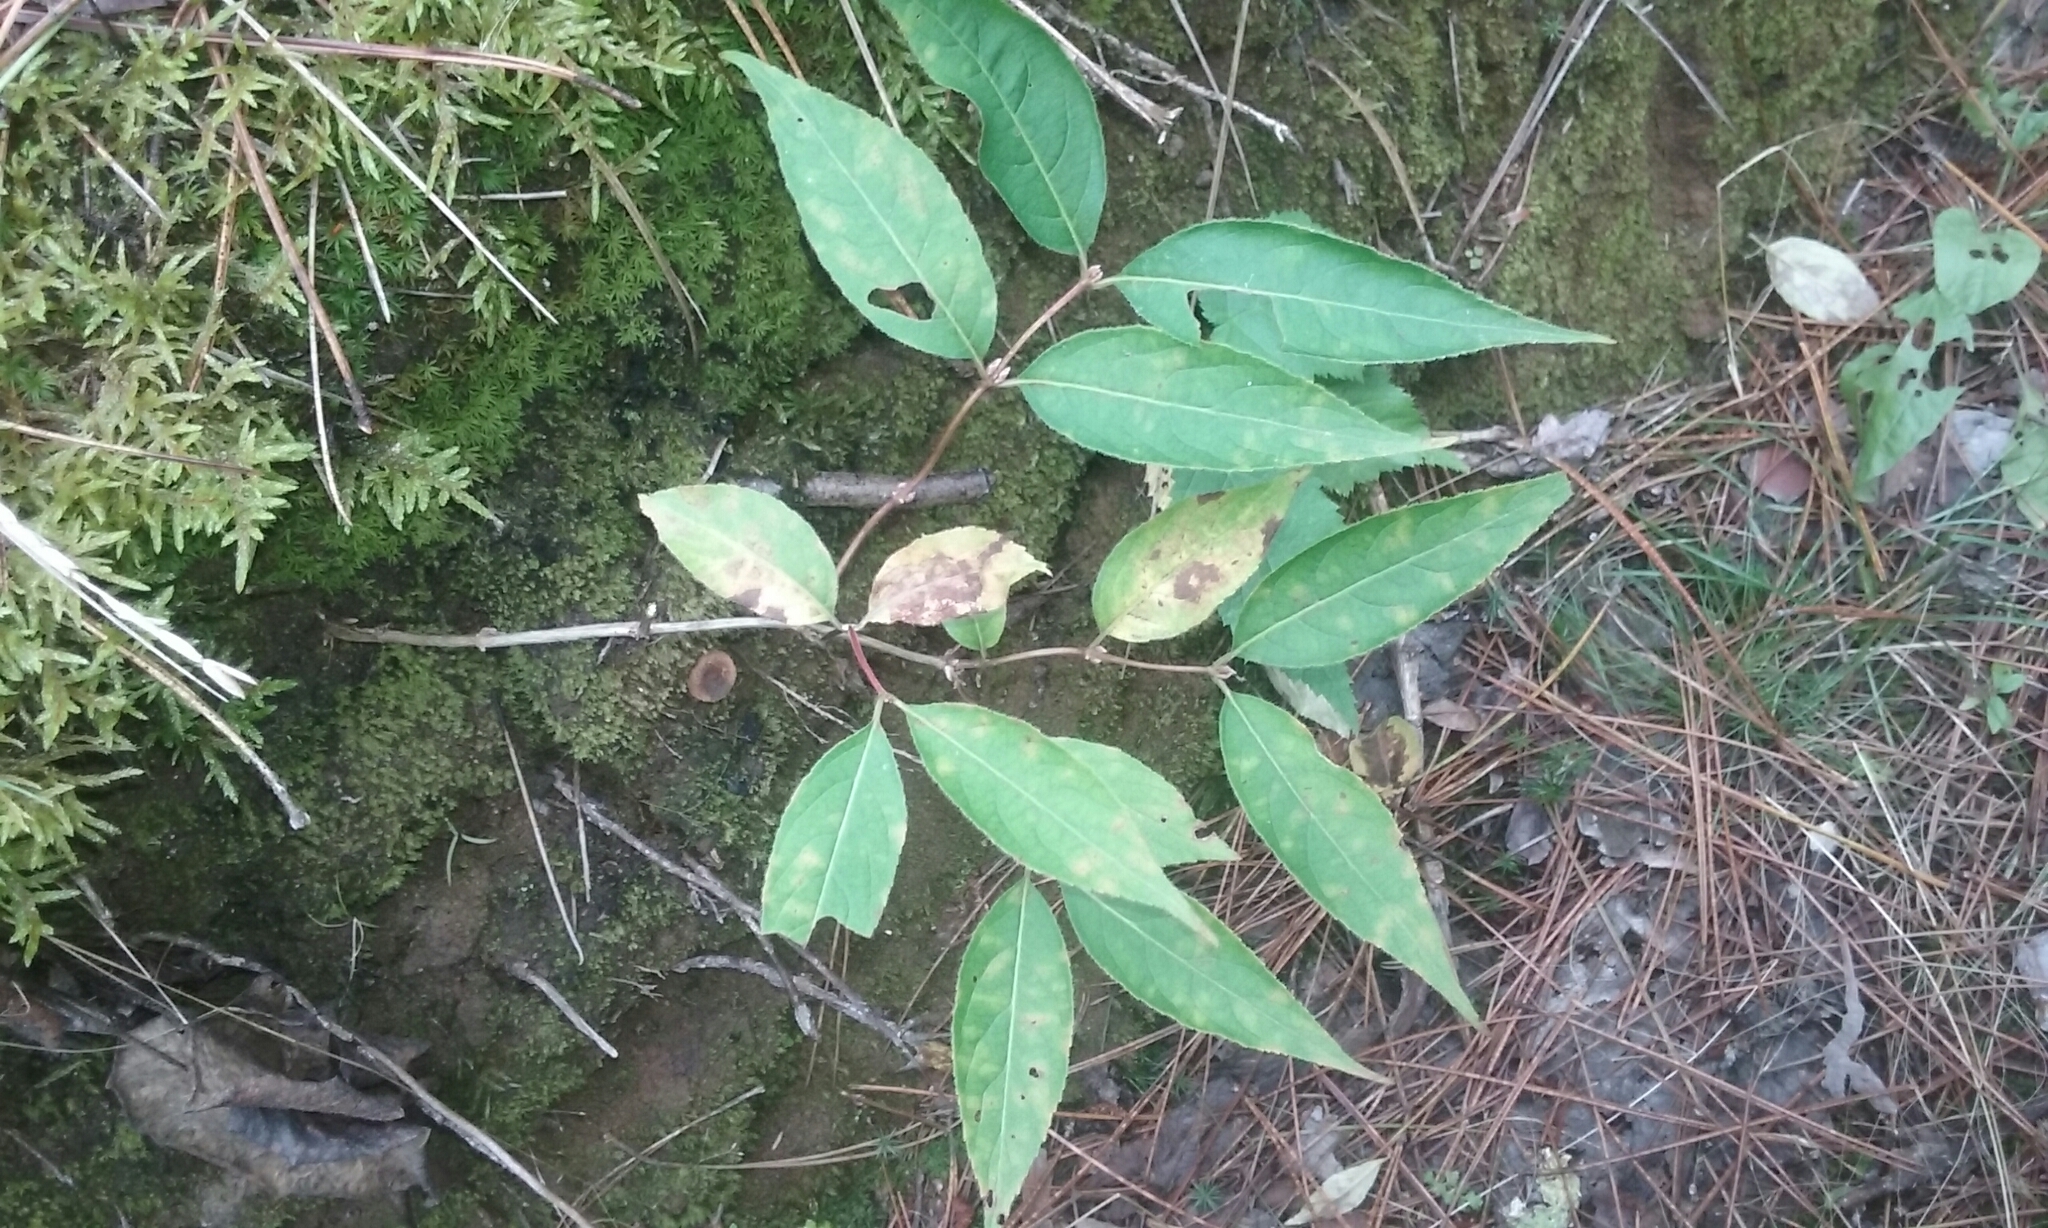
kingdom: Plantae
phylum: Tracheophyta
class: Magnoliopsida
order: Dipsacales
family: Caprifoliaceae
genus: Diervilla
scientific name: Diervilla lonicera
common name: Bush-honeysuckle
